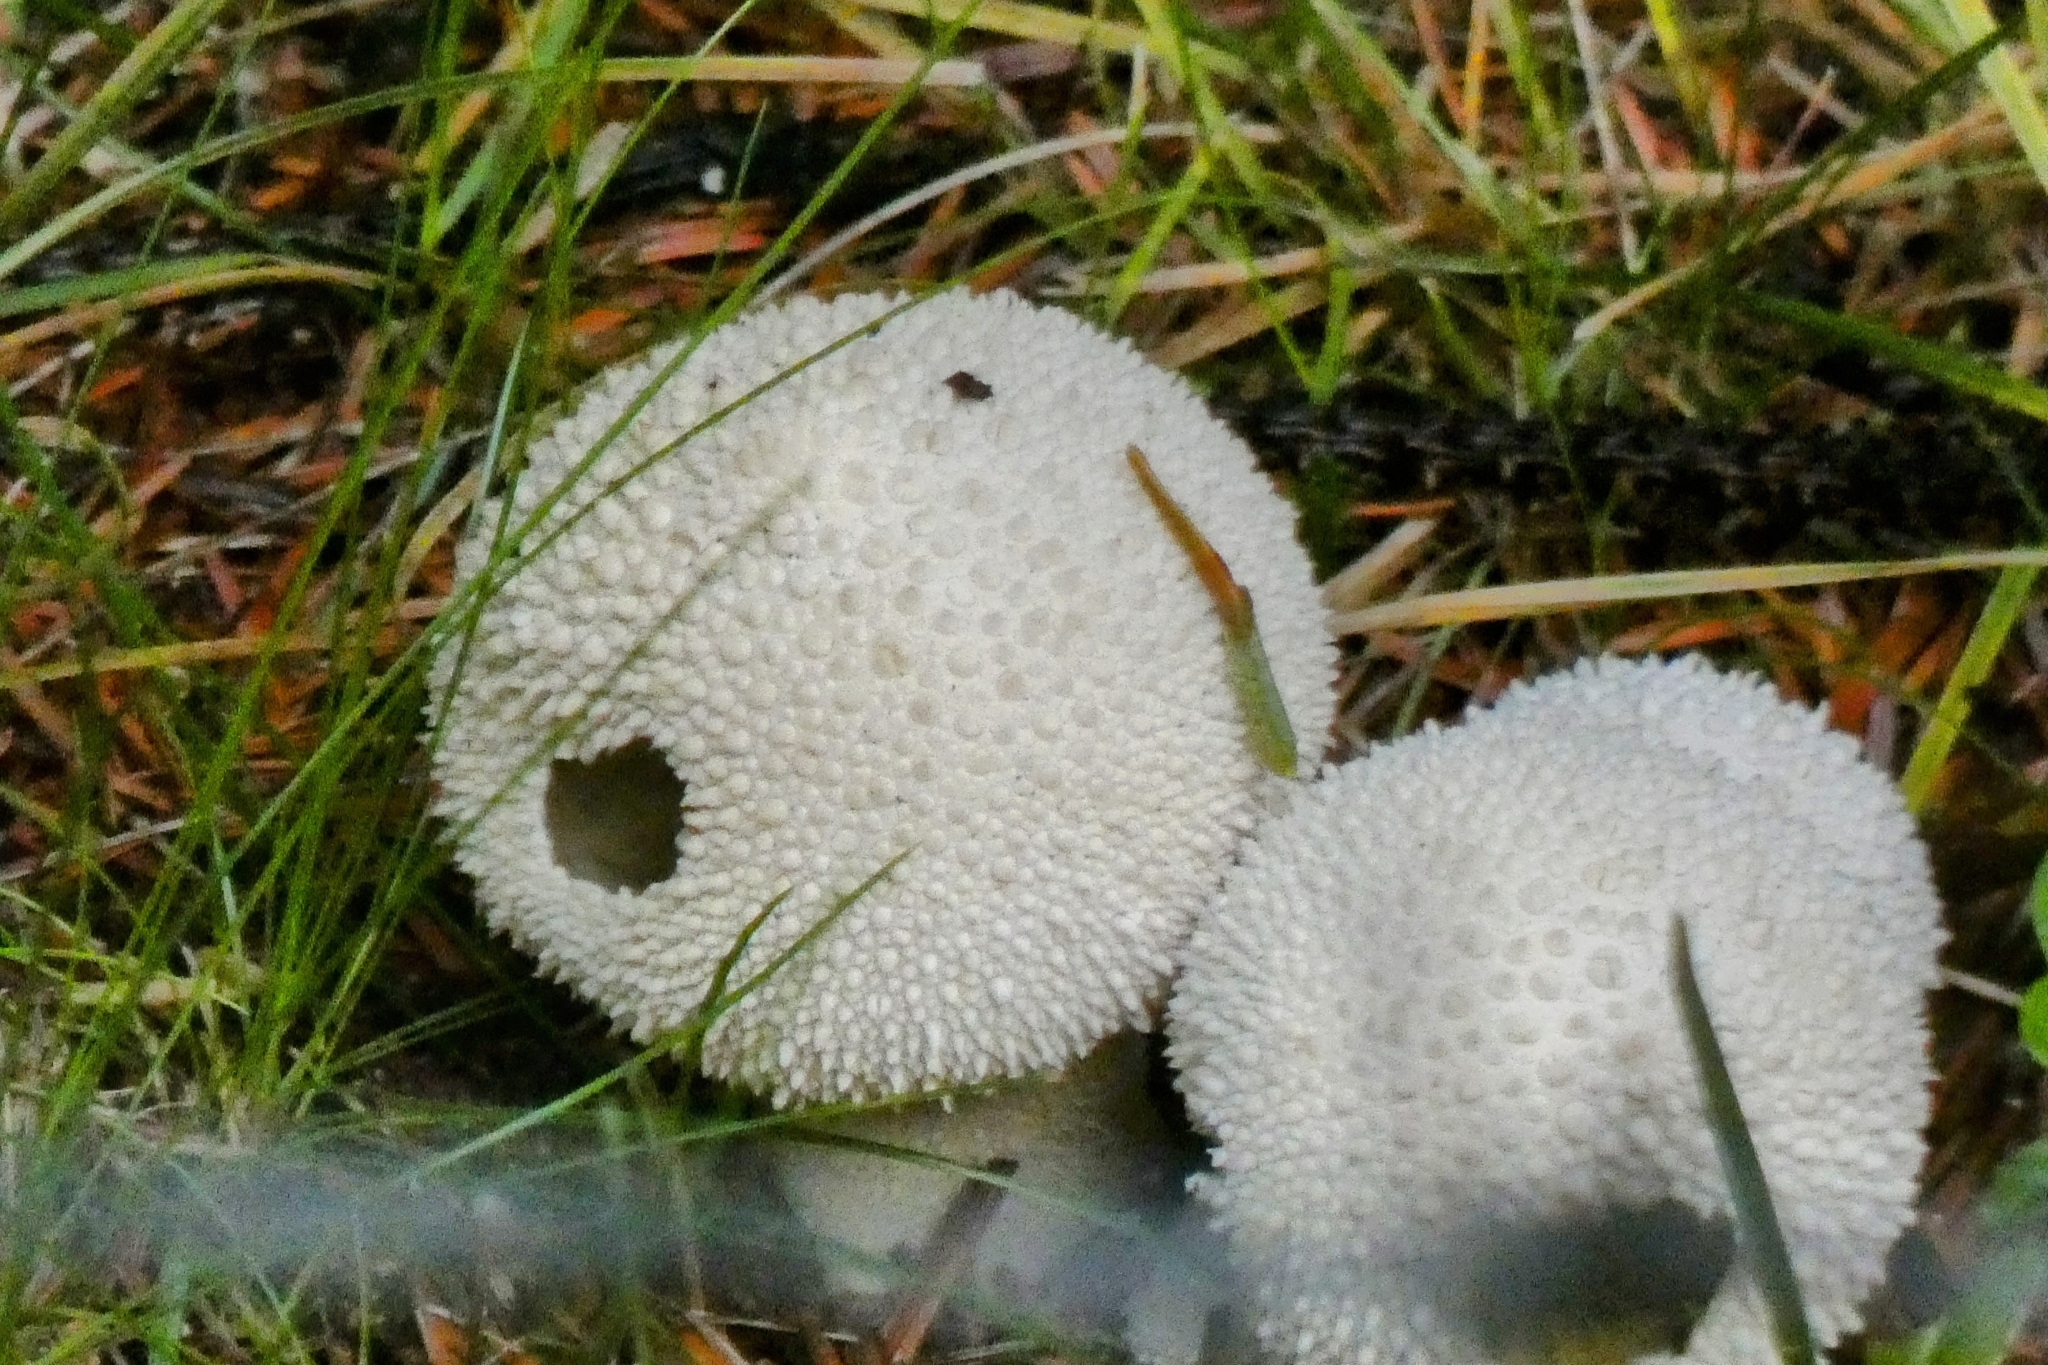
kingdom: Fungi
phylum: Basidiomycota
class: Agaricomycetes
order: Agaricales
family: Lycoperdaceae
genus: Lycoperdon
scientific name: Lycoperdon perlatum
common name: Common puffball
